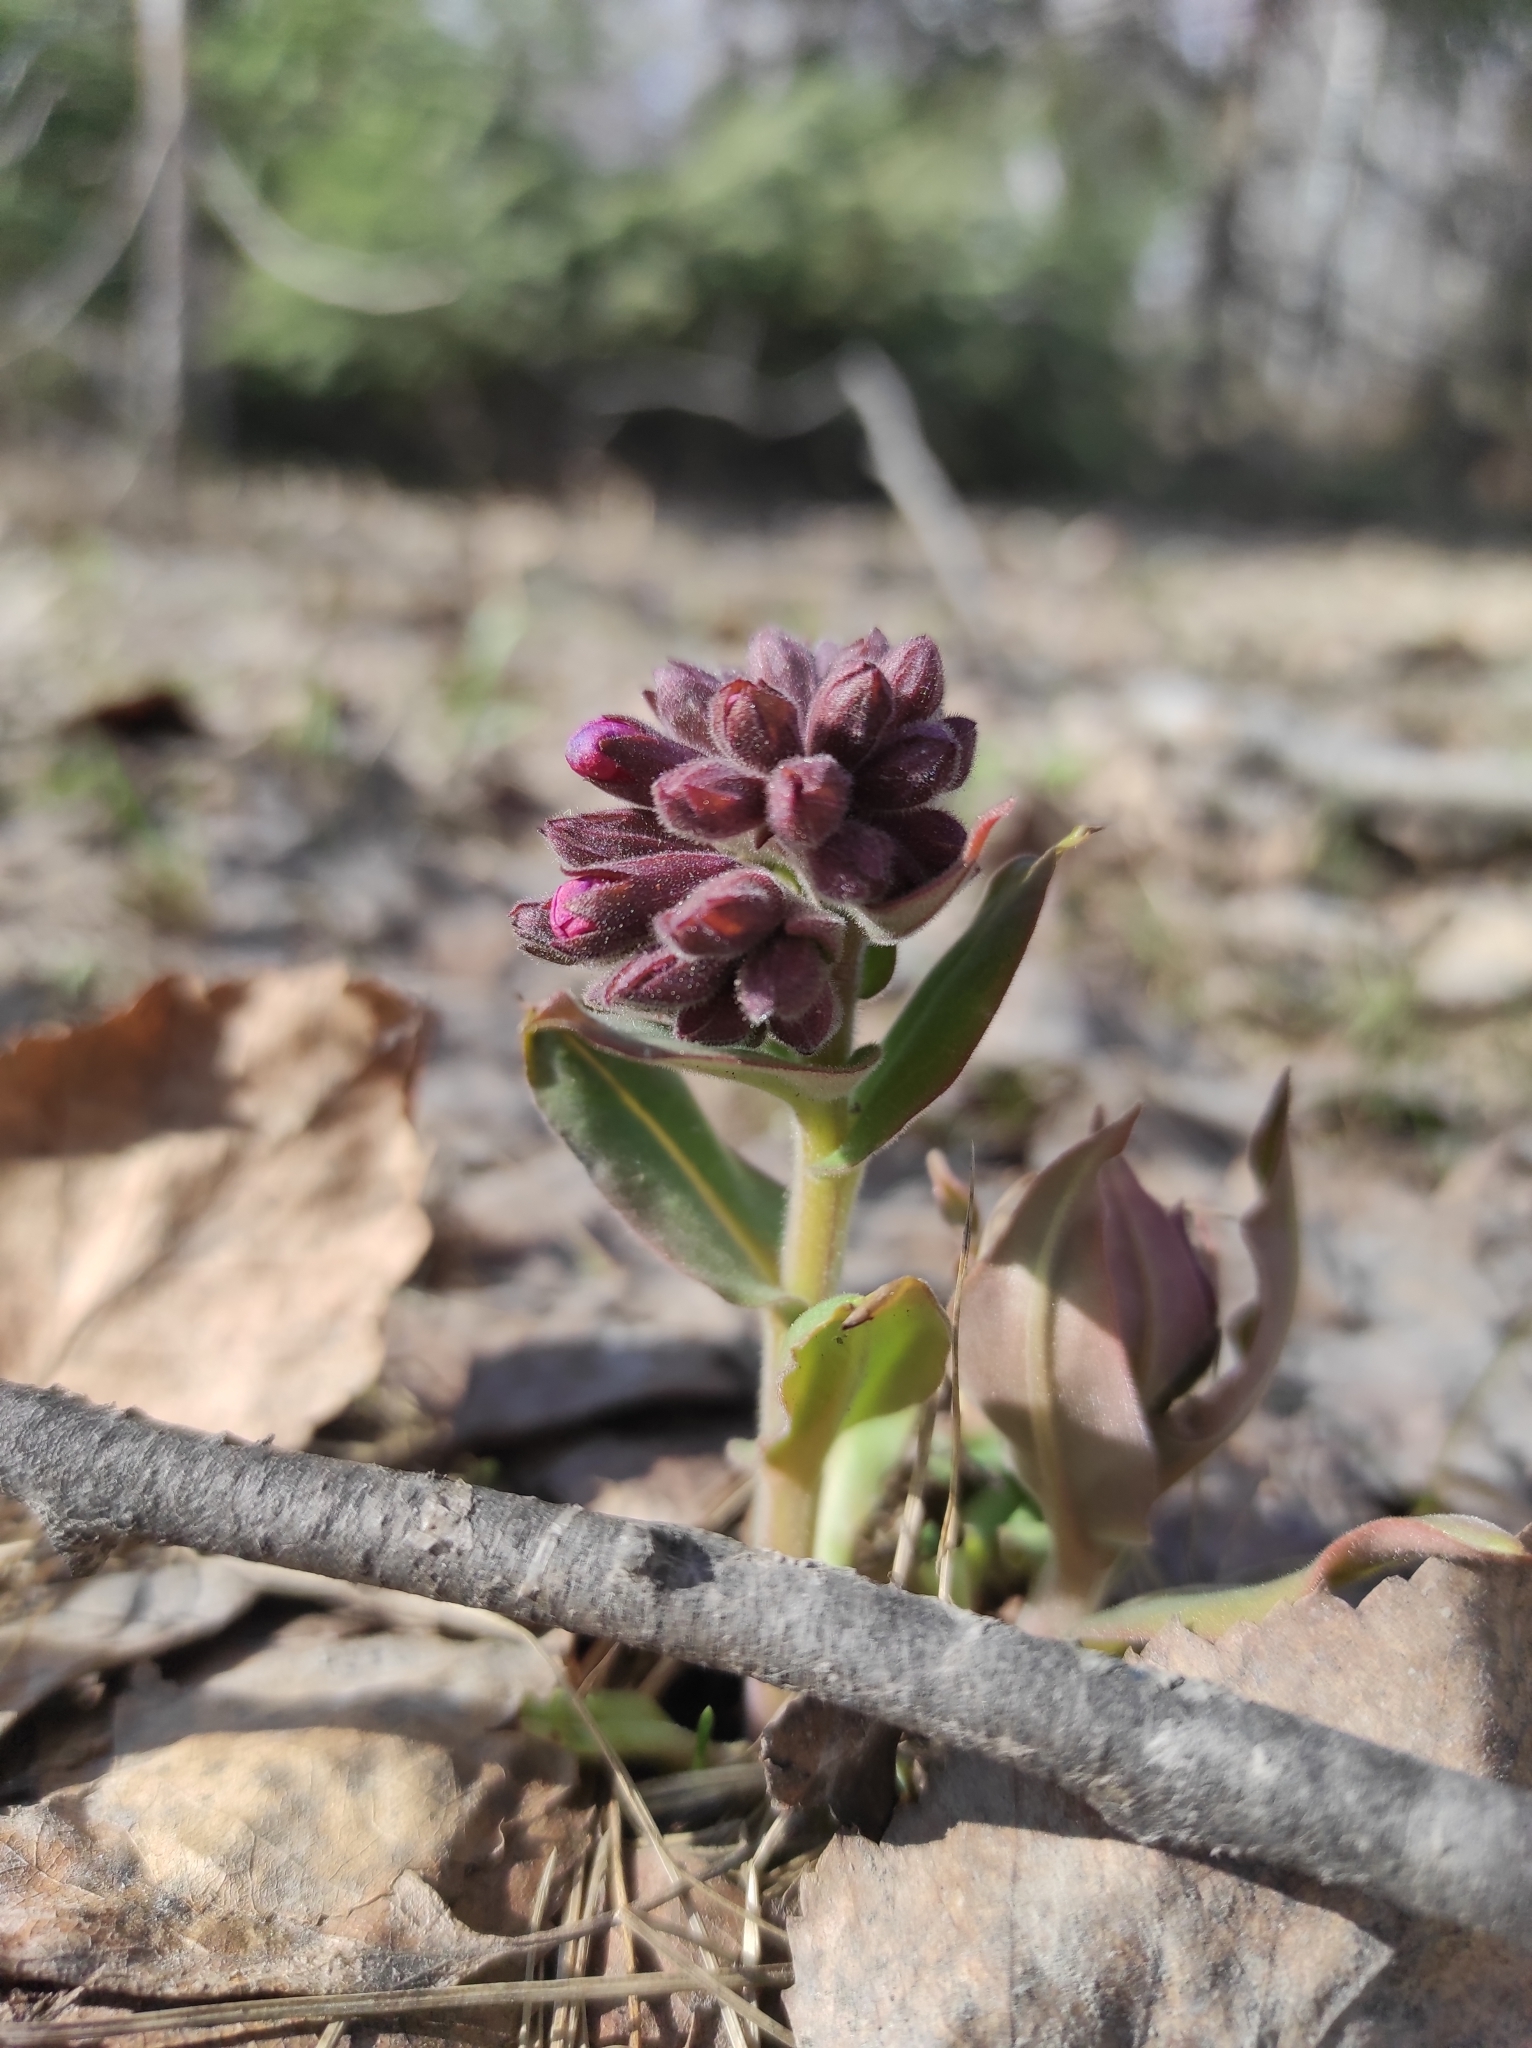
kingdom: Plantae
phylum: Tracheophyta
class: Magnoliopsida
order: Boraginales
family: Boraginaceae
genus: Pulmonaria
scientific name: Pulmonaria mollis
